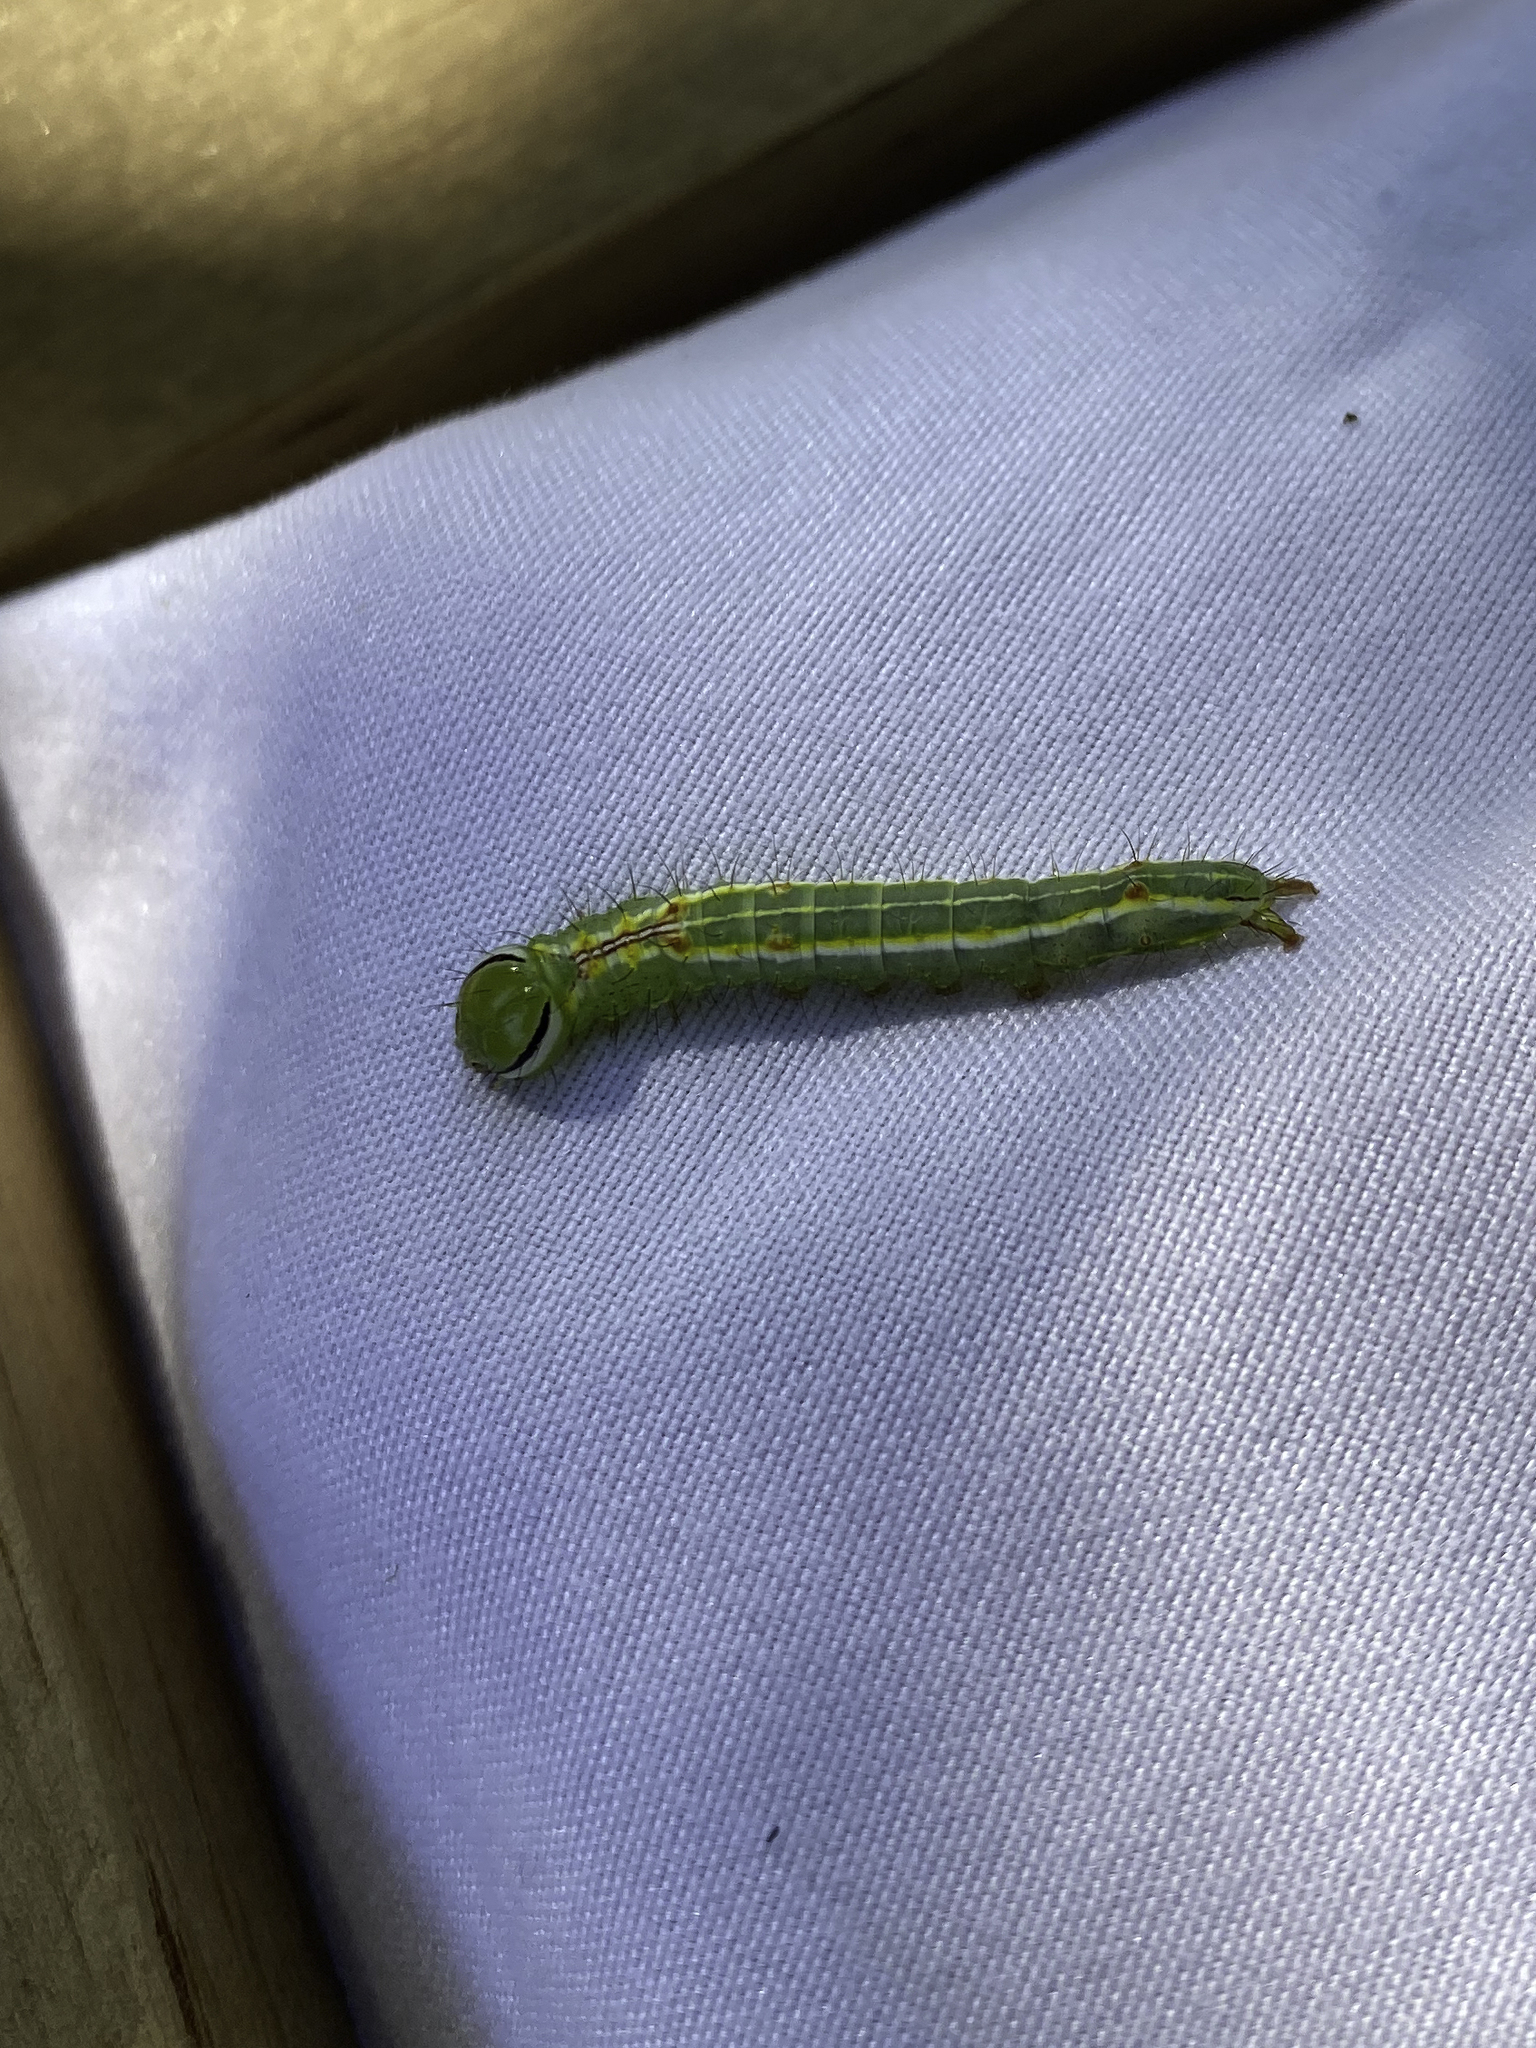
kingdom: Animalia
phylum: Arthropoda
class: Insecta
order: Lepidoptera
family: Notodontidae
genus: Lochmaeus
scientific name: Lochmaeus manteo
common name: Variable oakleaf caterpillar moth
